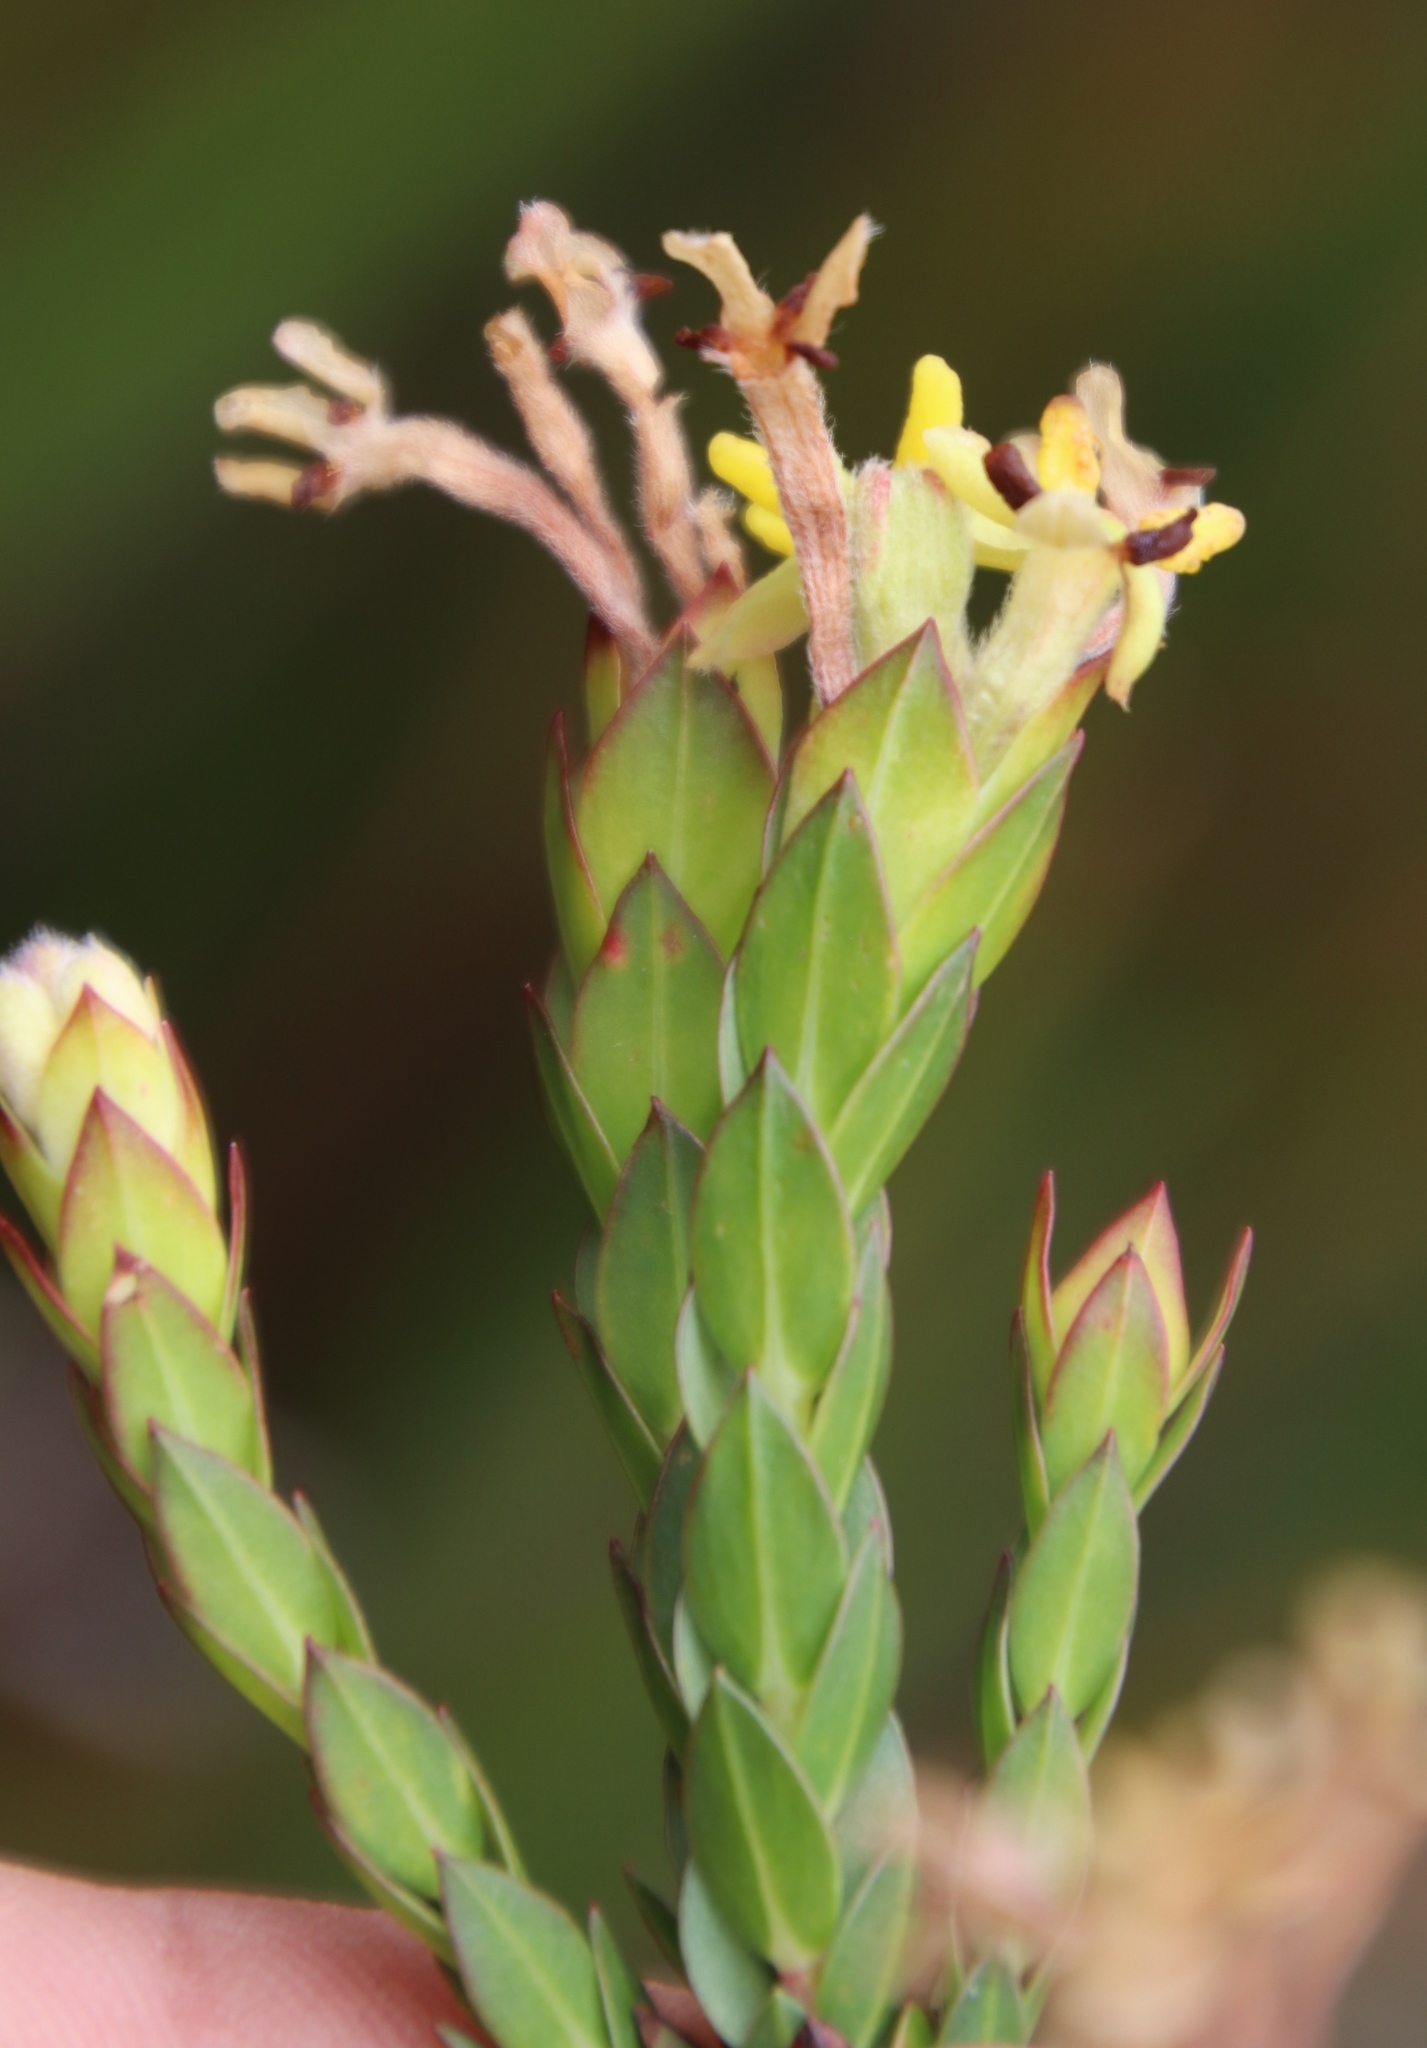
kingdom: Plantae
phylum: Tracheophyta
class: Magnoliopsida
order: Malvales
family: Thymelaeaceae
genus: Gnidia
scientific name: Gnidia oppositifolia
